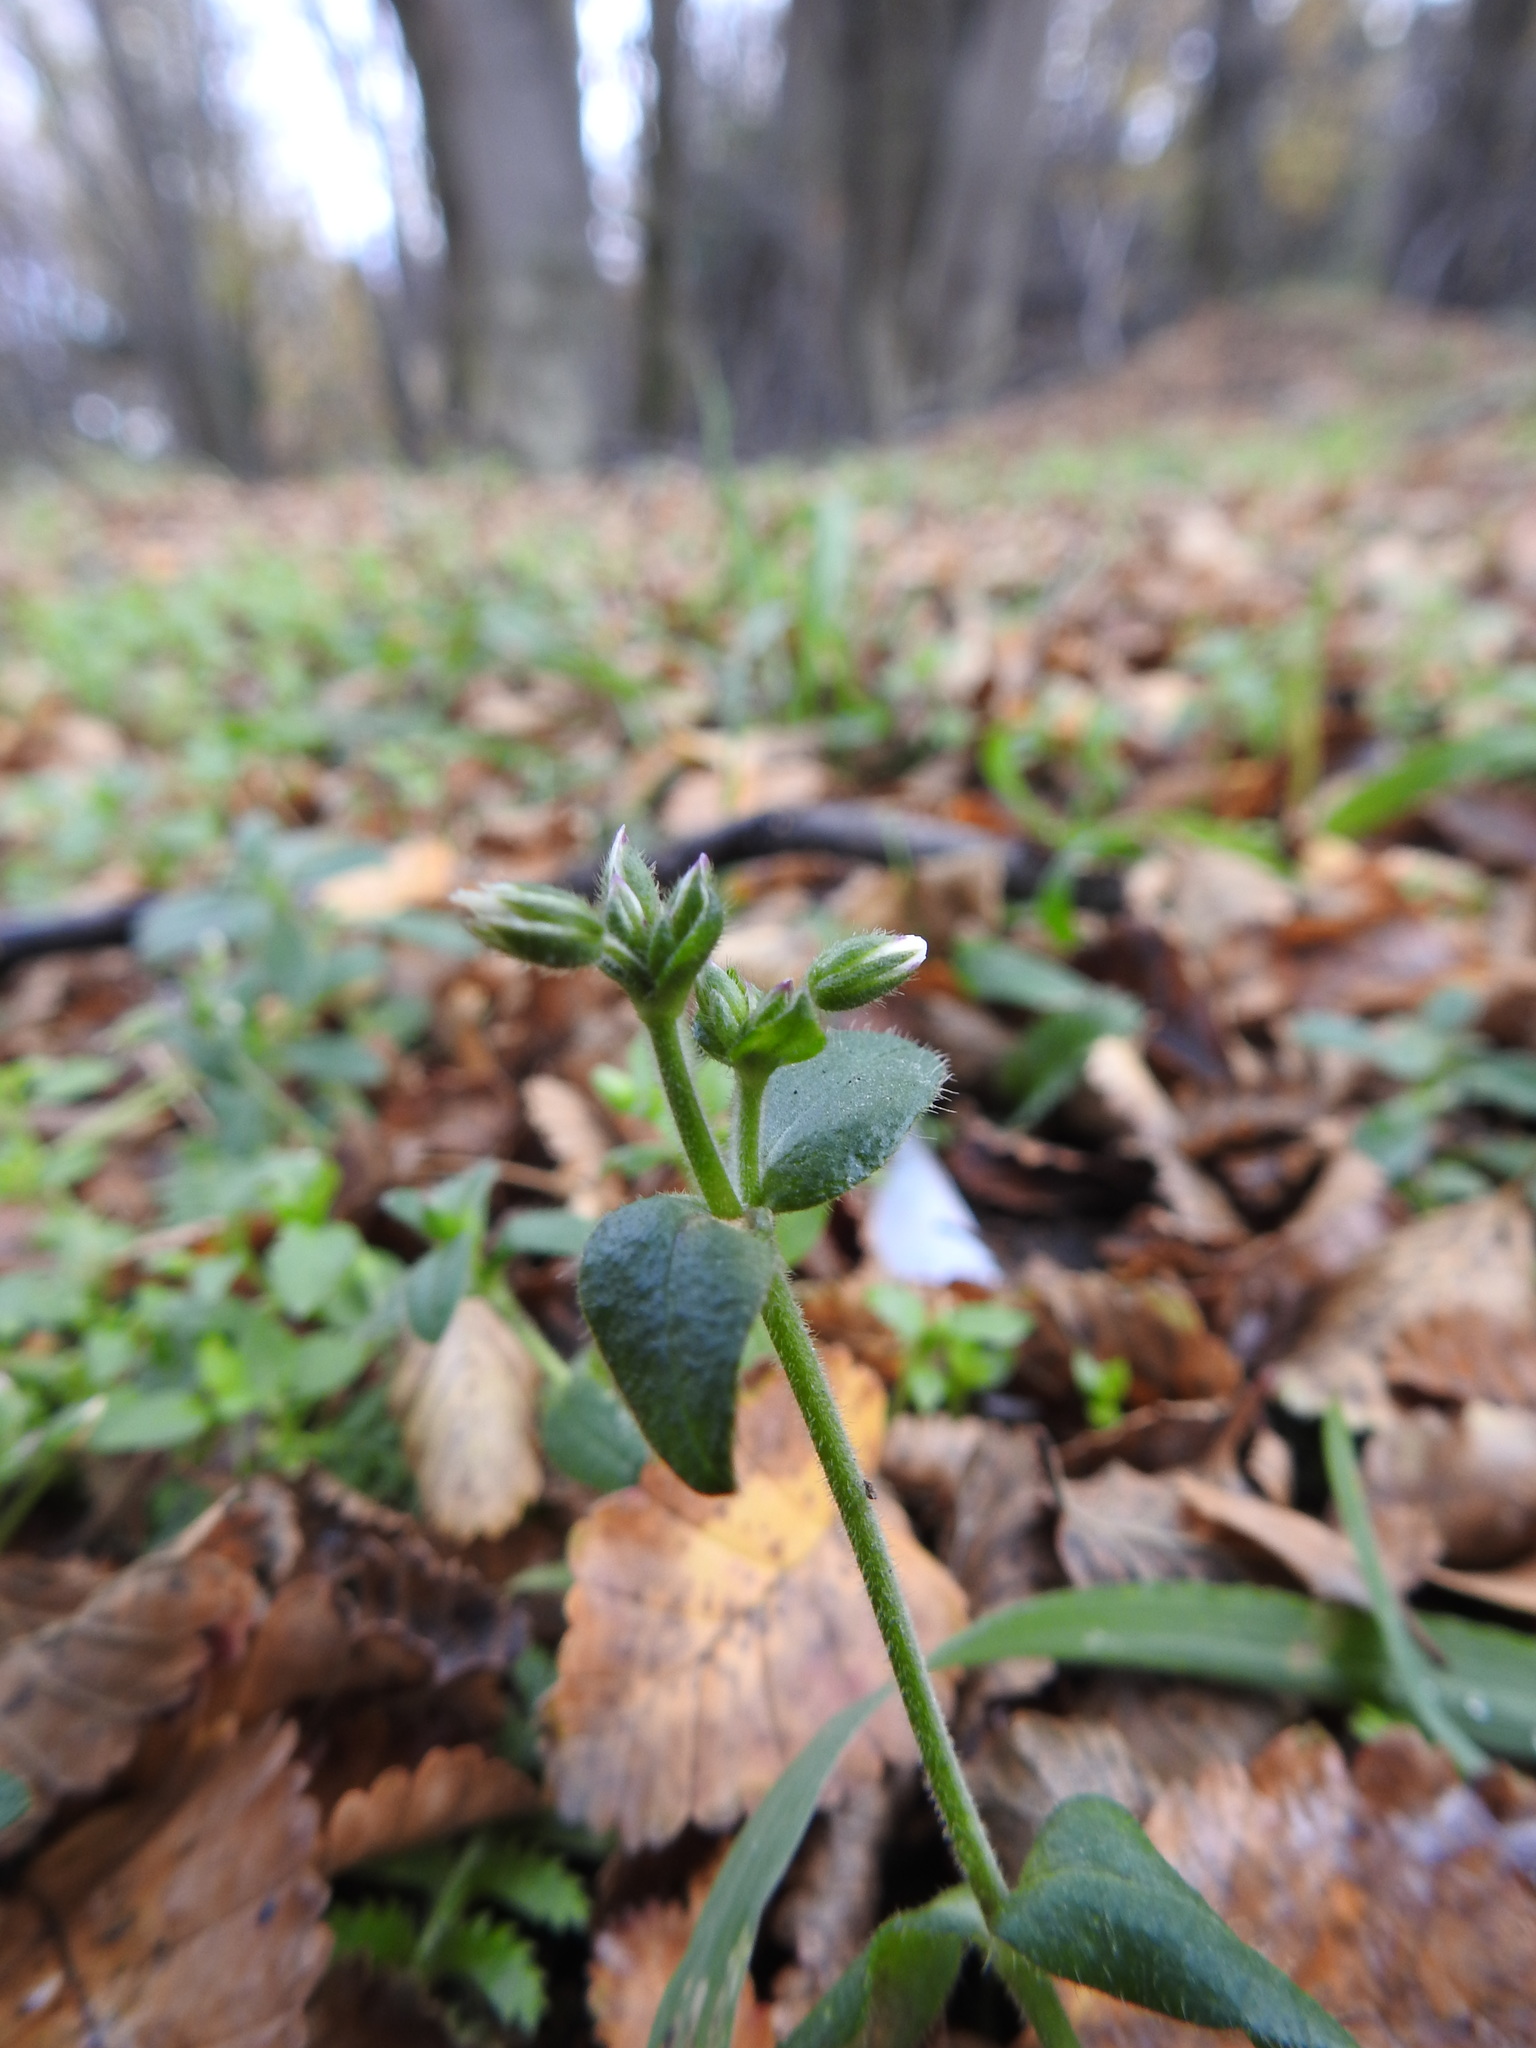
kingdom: Plantae
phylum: Tracheophyta
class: Magnoliopsida
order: Caryophyllales
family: Caryophyllaceae
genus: Cerastium
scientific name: Cerastium fontanum
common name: Common mouse-ear
